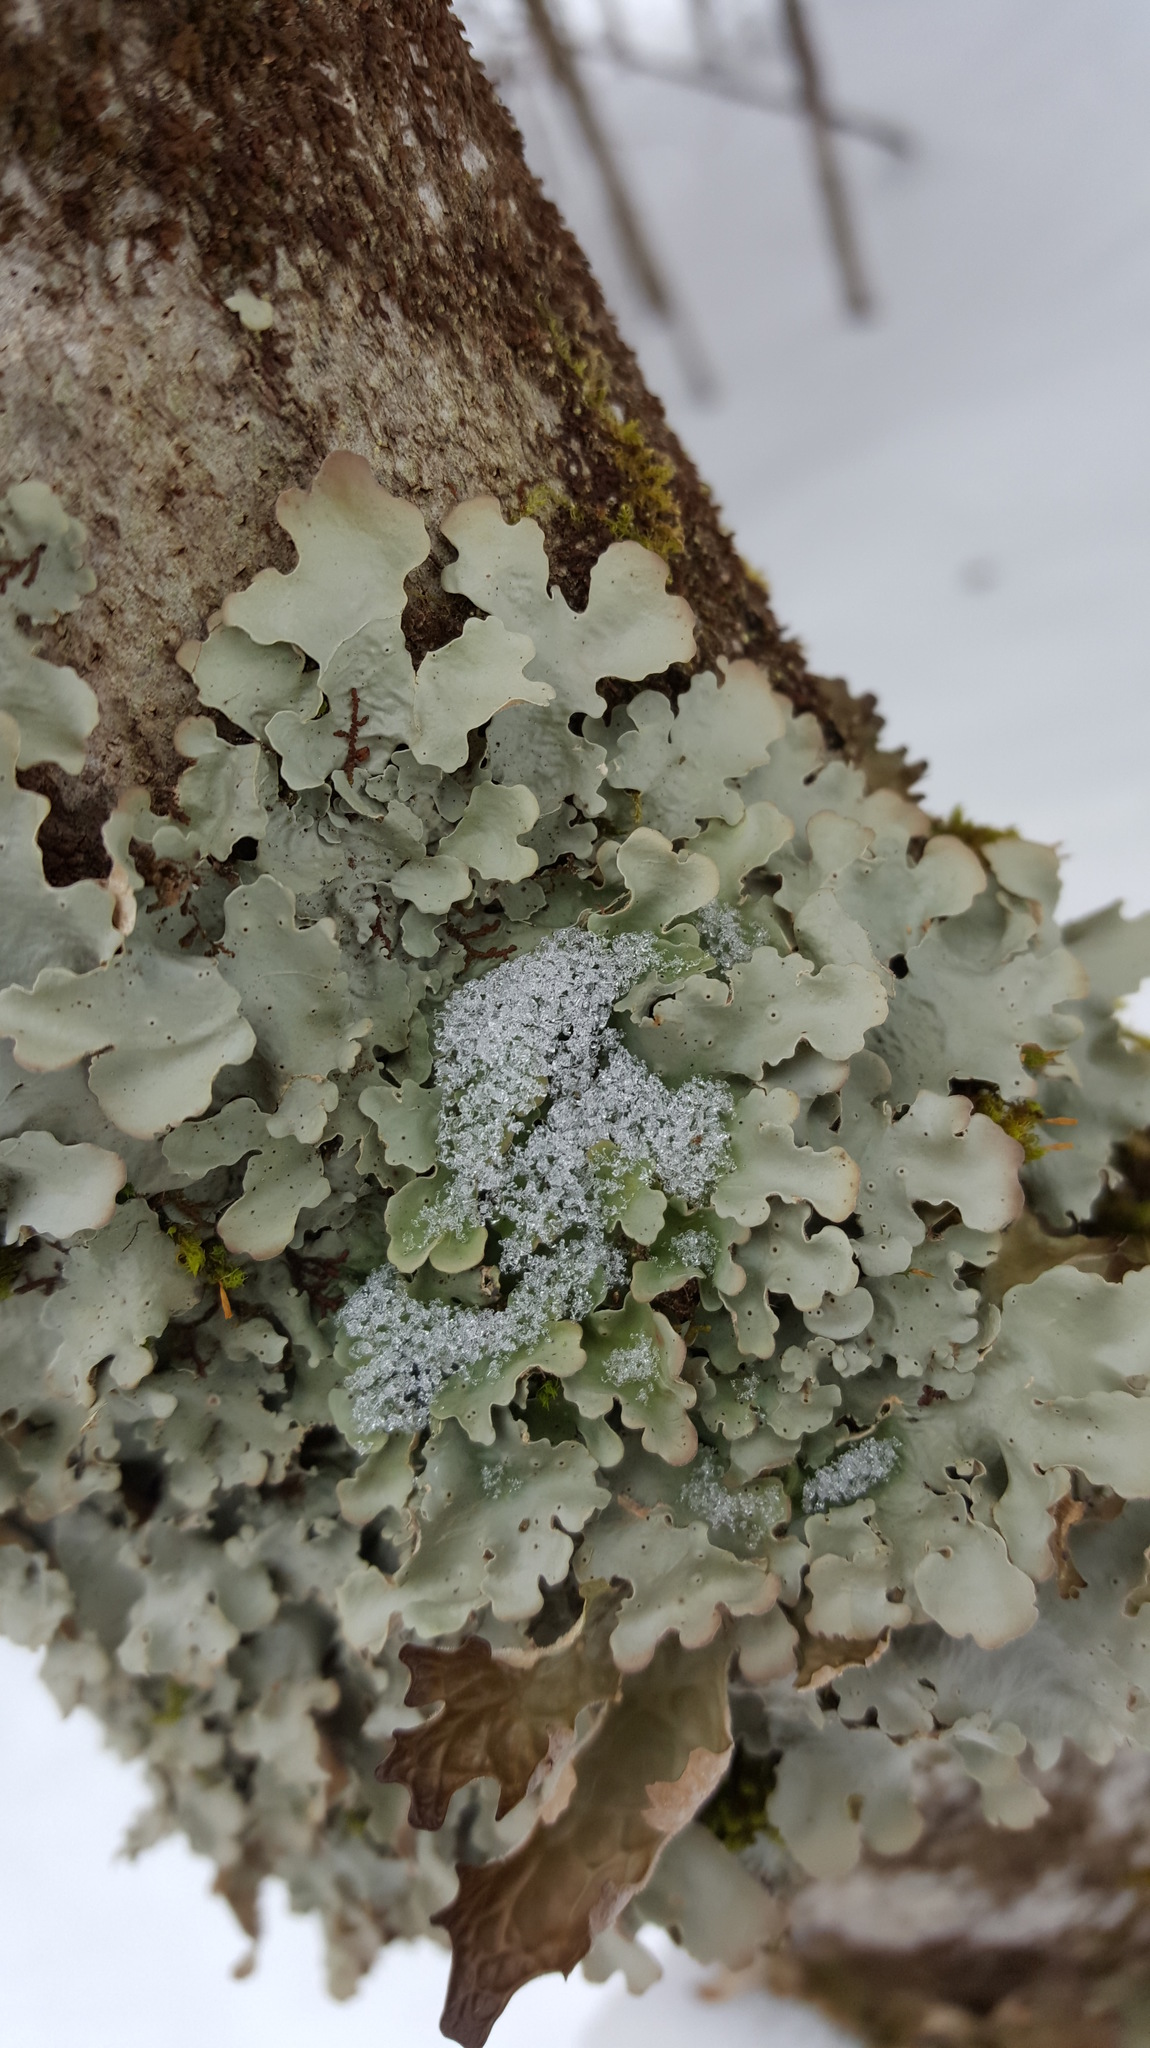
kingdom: Fungi
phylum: Ascomycota
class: Lecanoromycetes
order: Peltigerales
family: Lobariaceae
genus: Ricasolia
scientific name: Ricasolia quercizans
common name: Smooth lungwort
